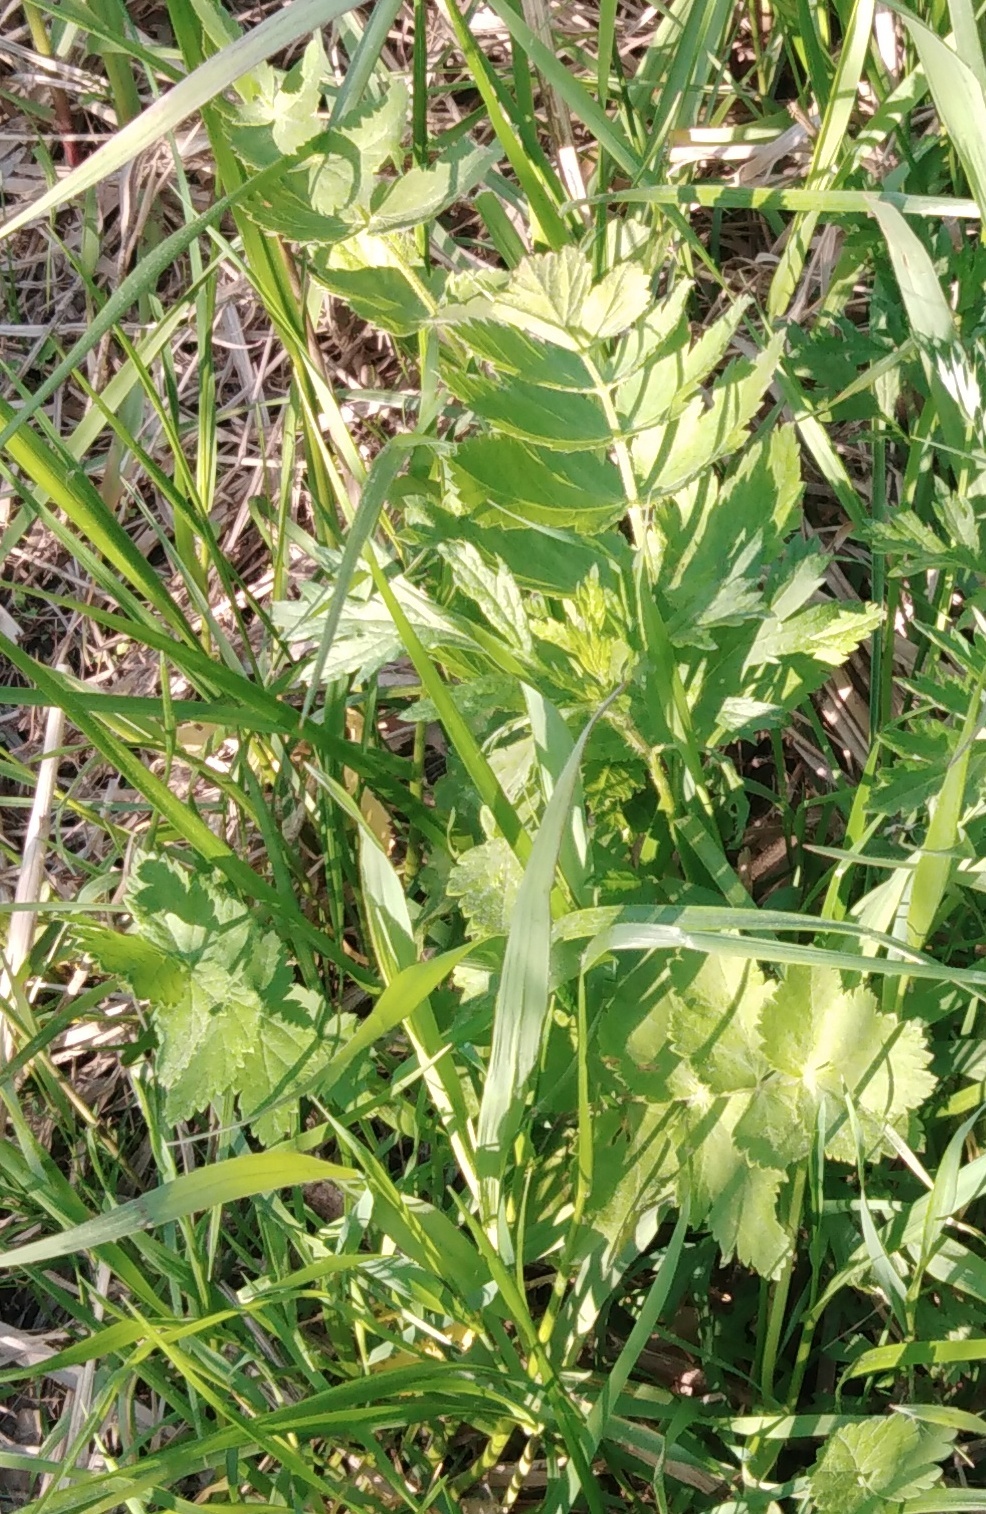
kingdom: Plantae
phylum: Tracheophyta
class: Magnoliopsida
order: Apiales
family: Apiaceae
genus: Pastinaca
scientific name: Pastinaca sativa
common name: Wild parsnip
